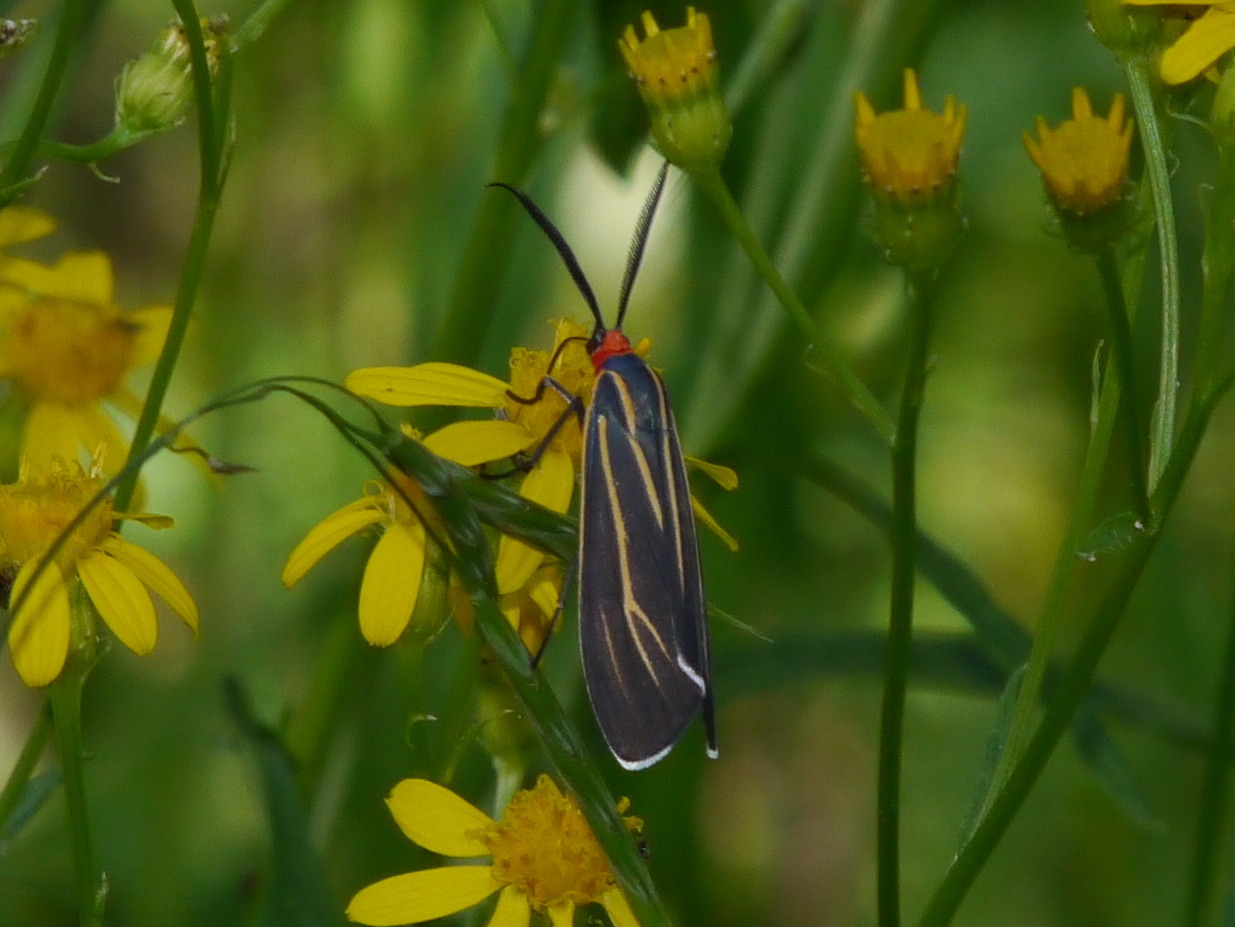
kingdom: Animalia
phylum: Arthropoda
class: Insecta
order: Lepidoptera
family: Erebidae
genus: Ctenucha
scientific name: Ctenucha venosa
